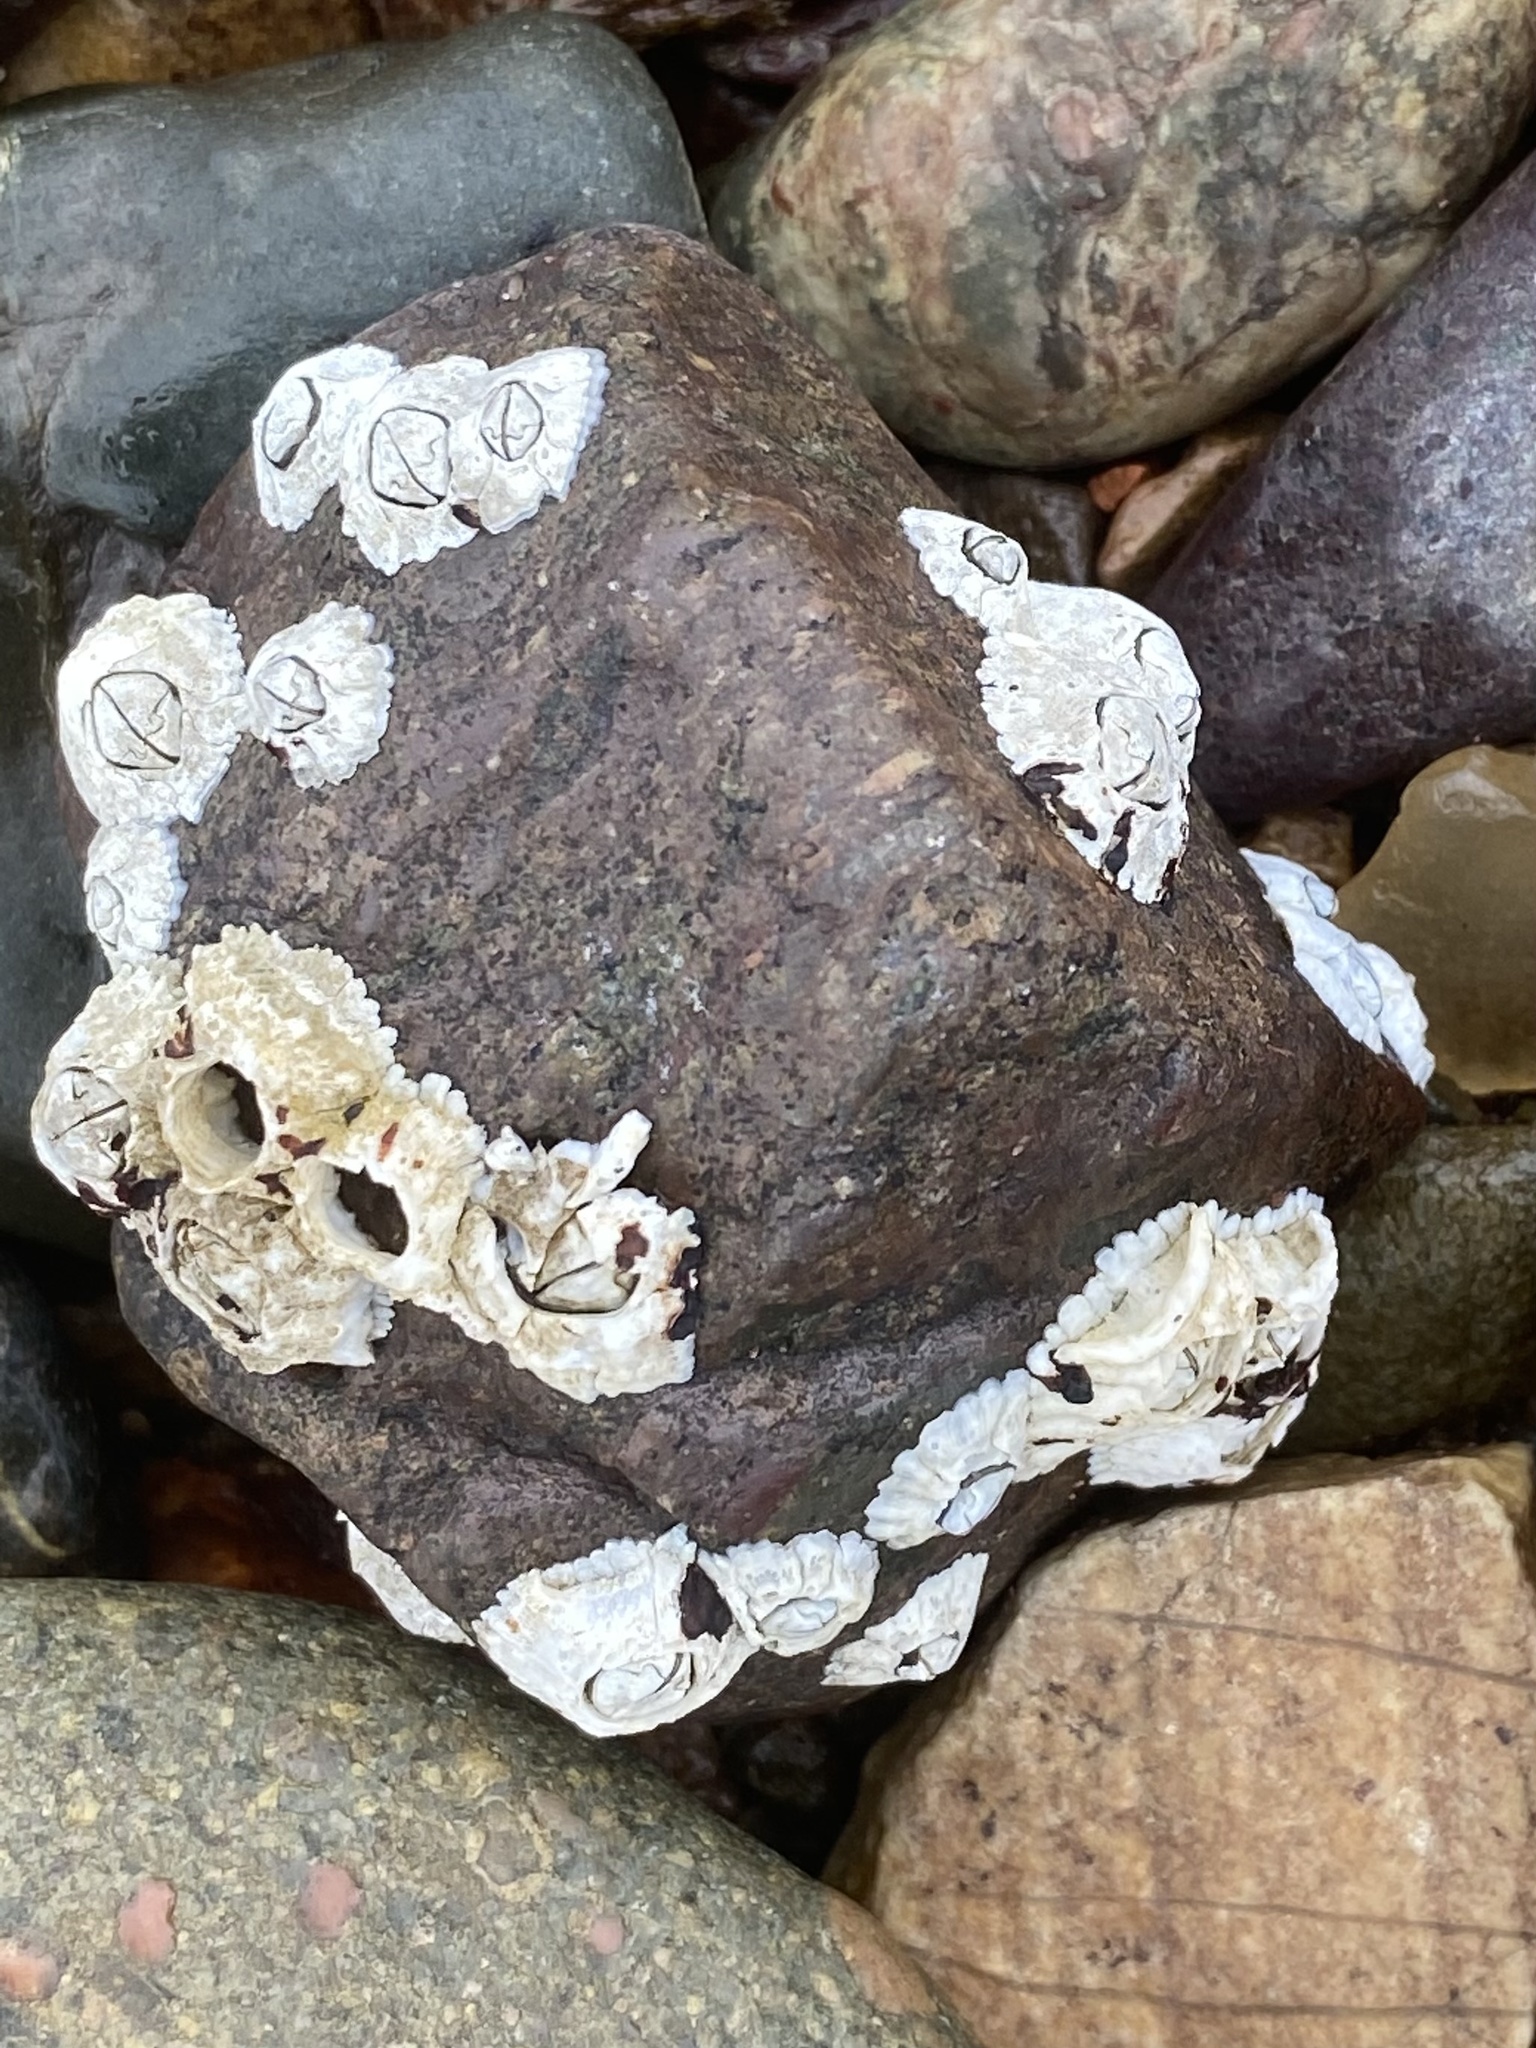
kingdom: Animalia
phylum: Arthropoda
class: Maxillopoda
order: Sessilia
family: Archaeobalanidae
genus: Semibalanus
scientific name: Semibalanus balanoides
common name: Acorn barnacle
